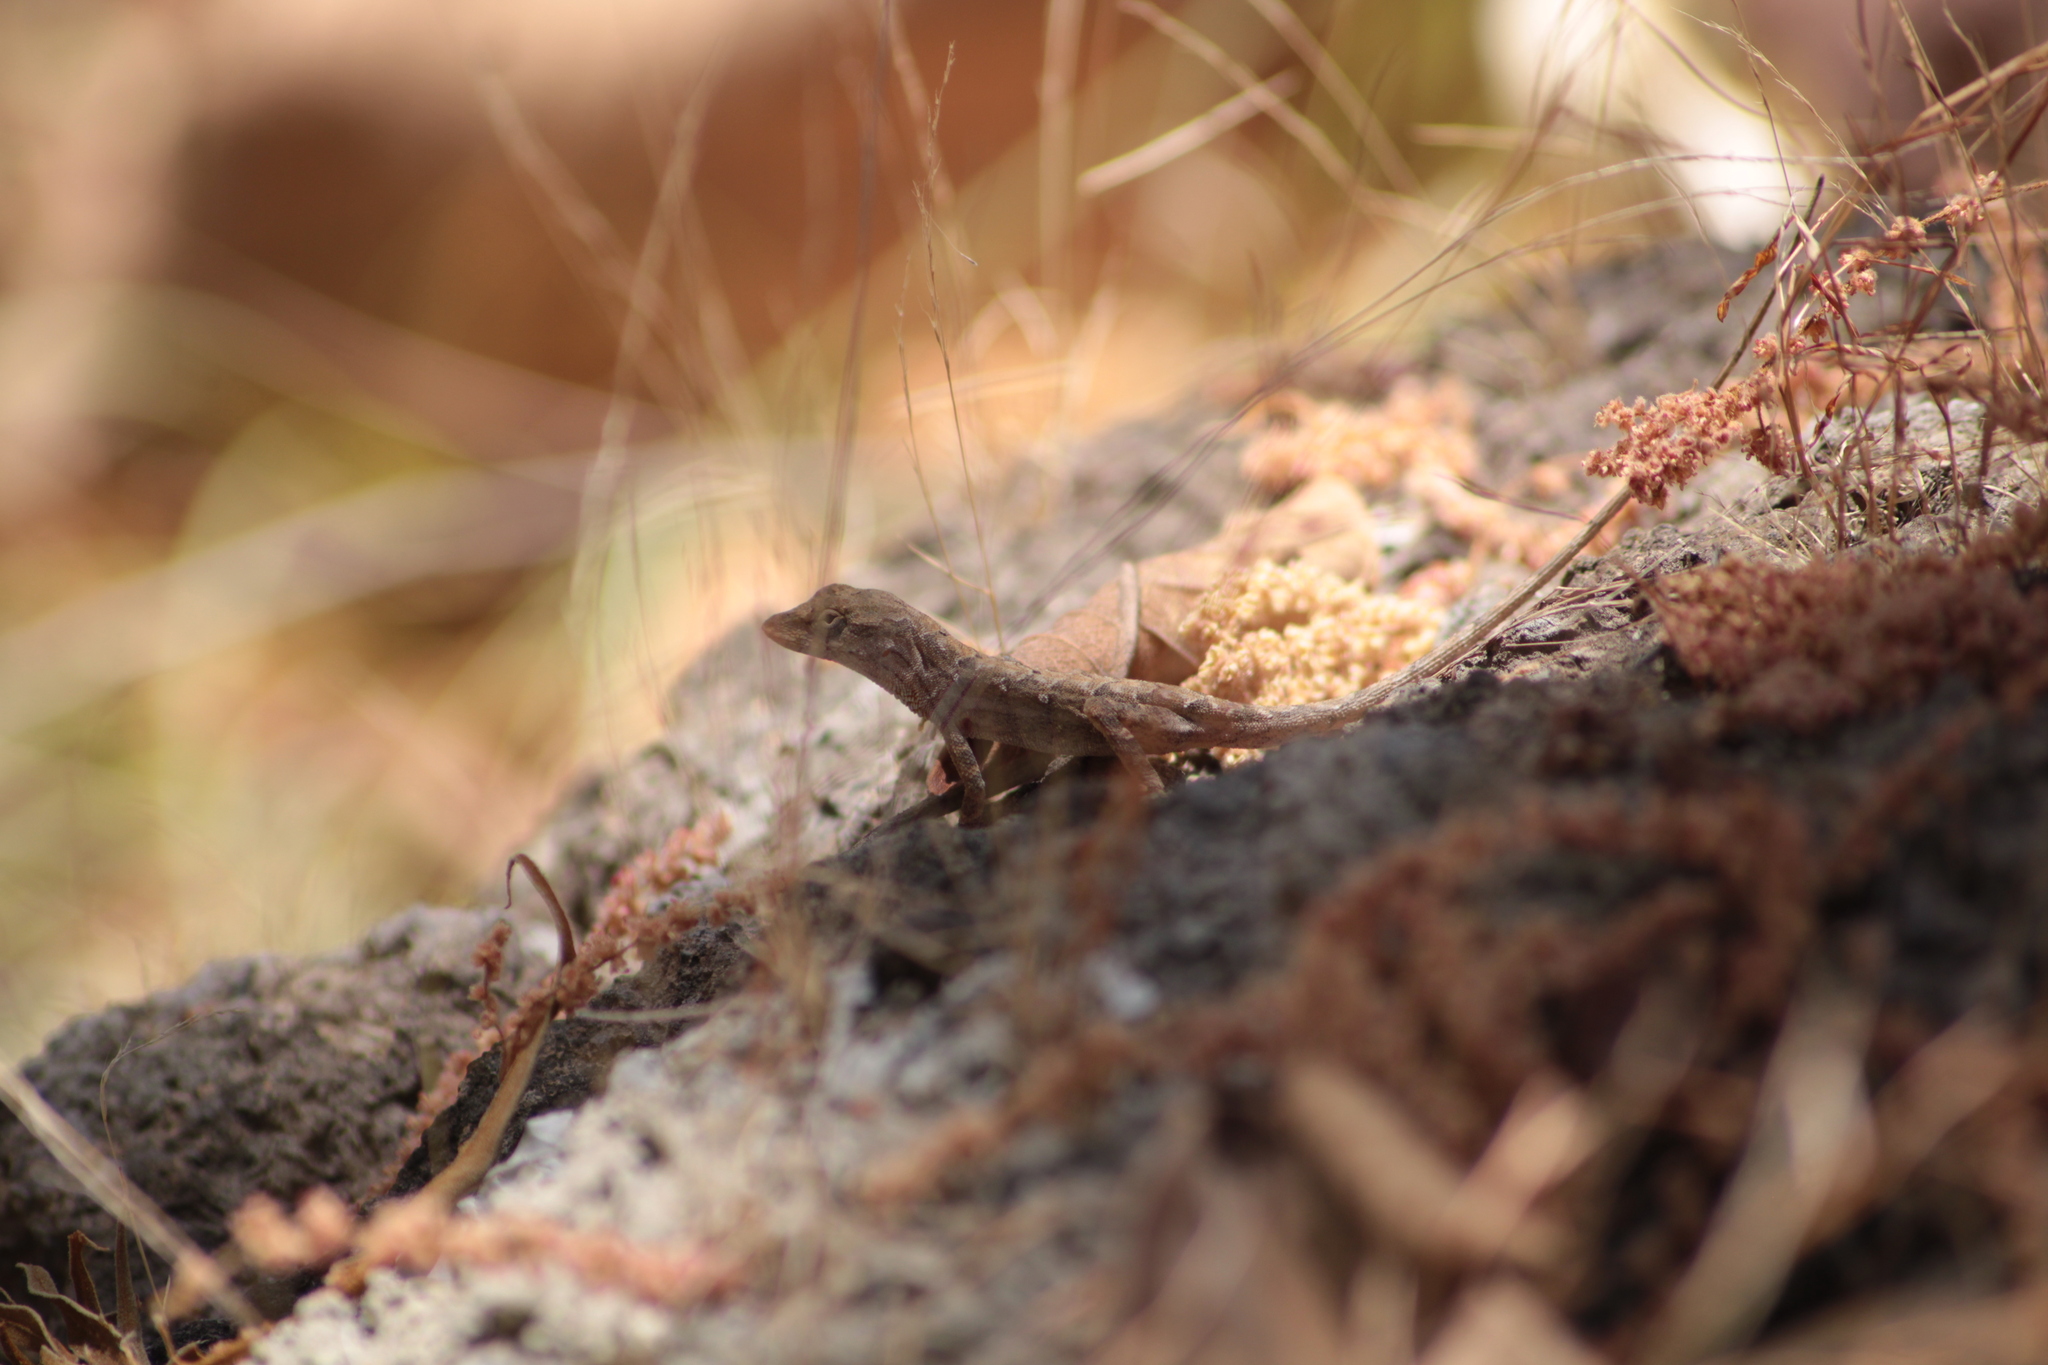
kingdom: Animalia
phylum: Chordata
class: Squamata
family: Dactyloidae
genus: Anolis
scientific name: Anolis nebulosus
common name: Clouded anole
